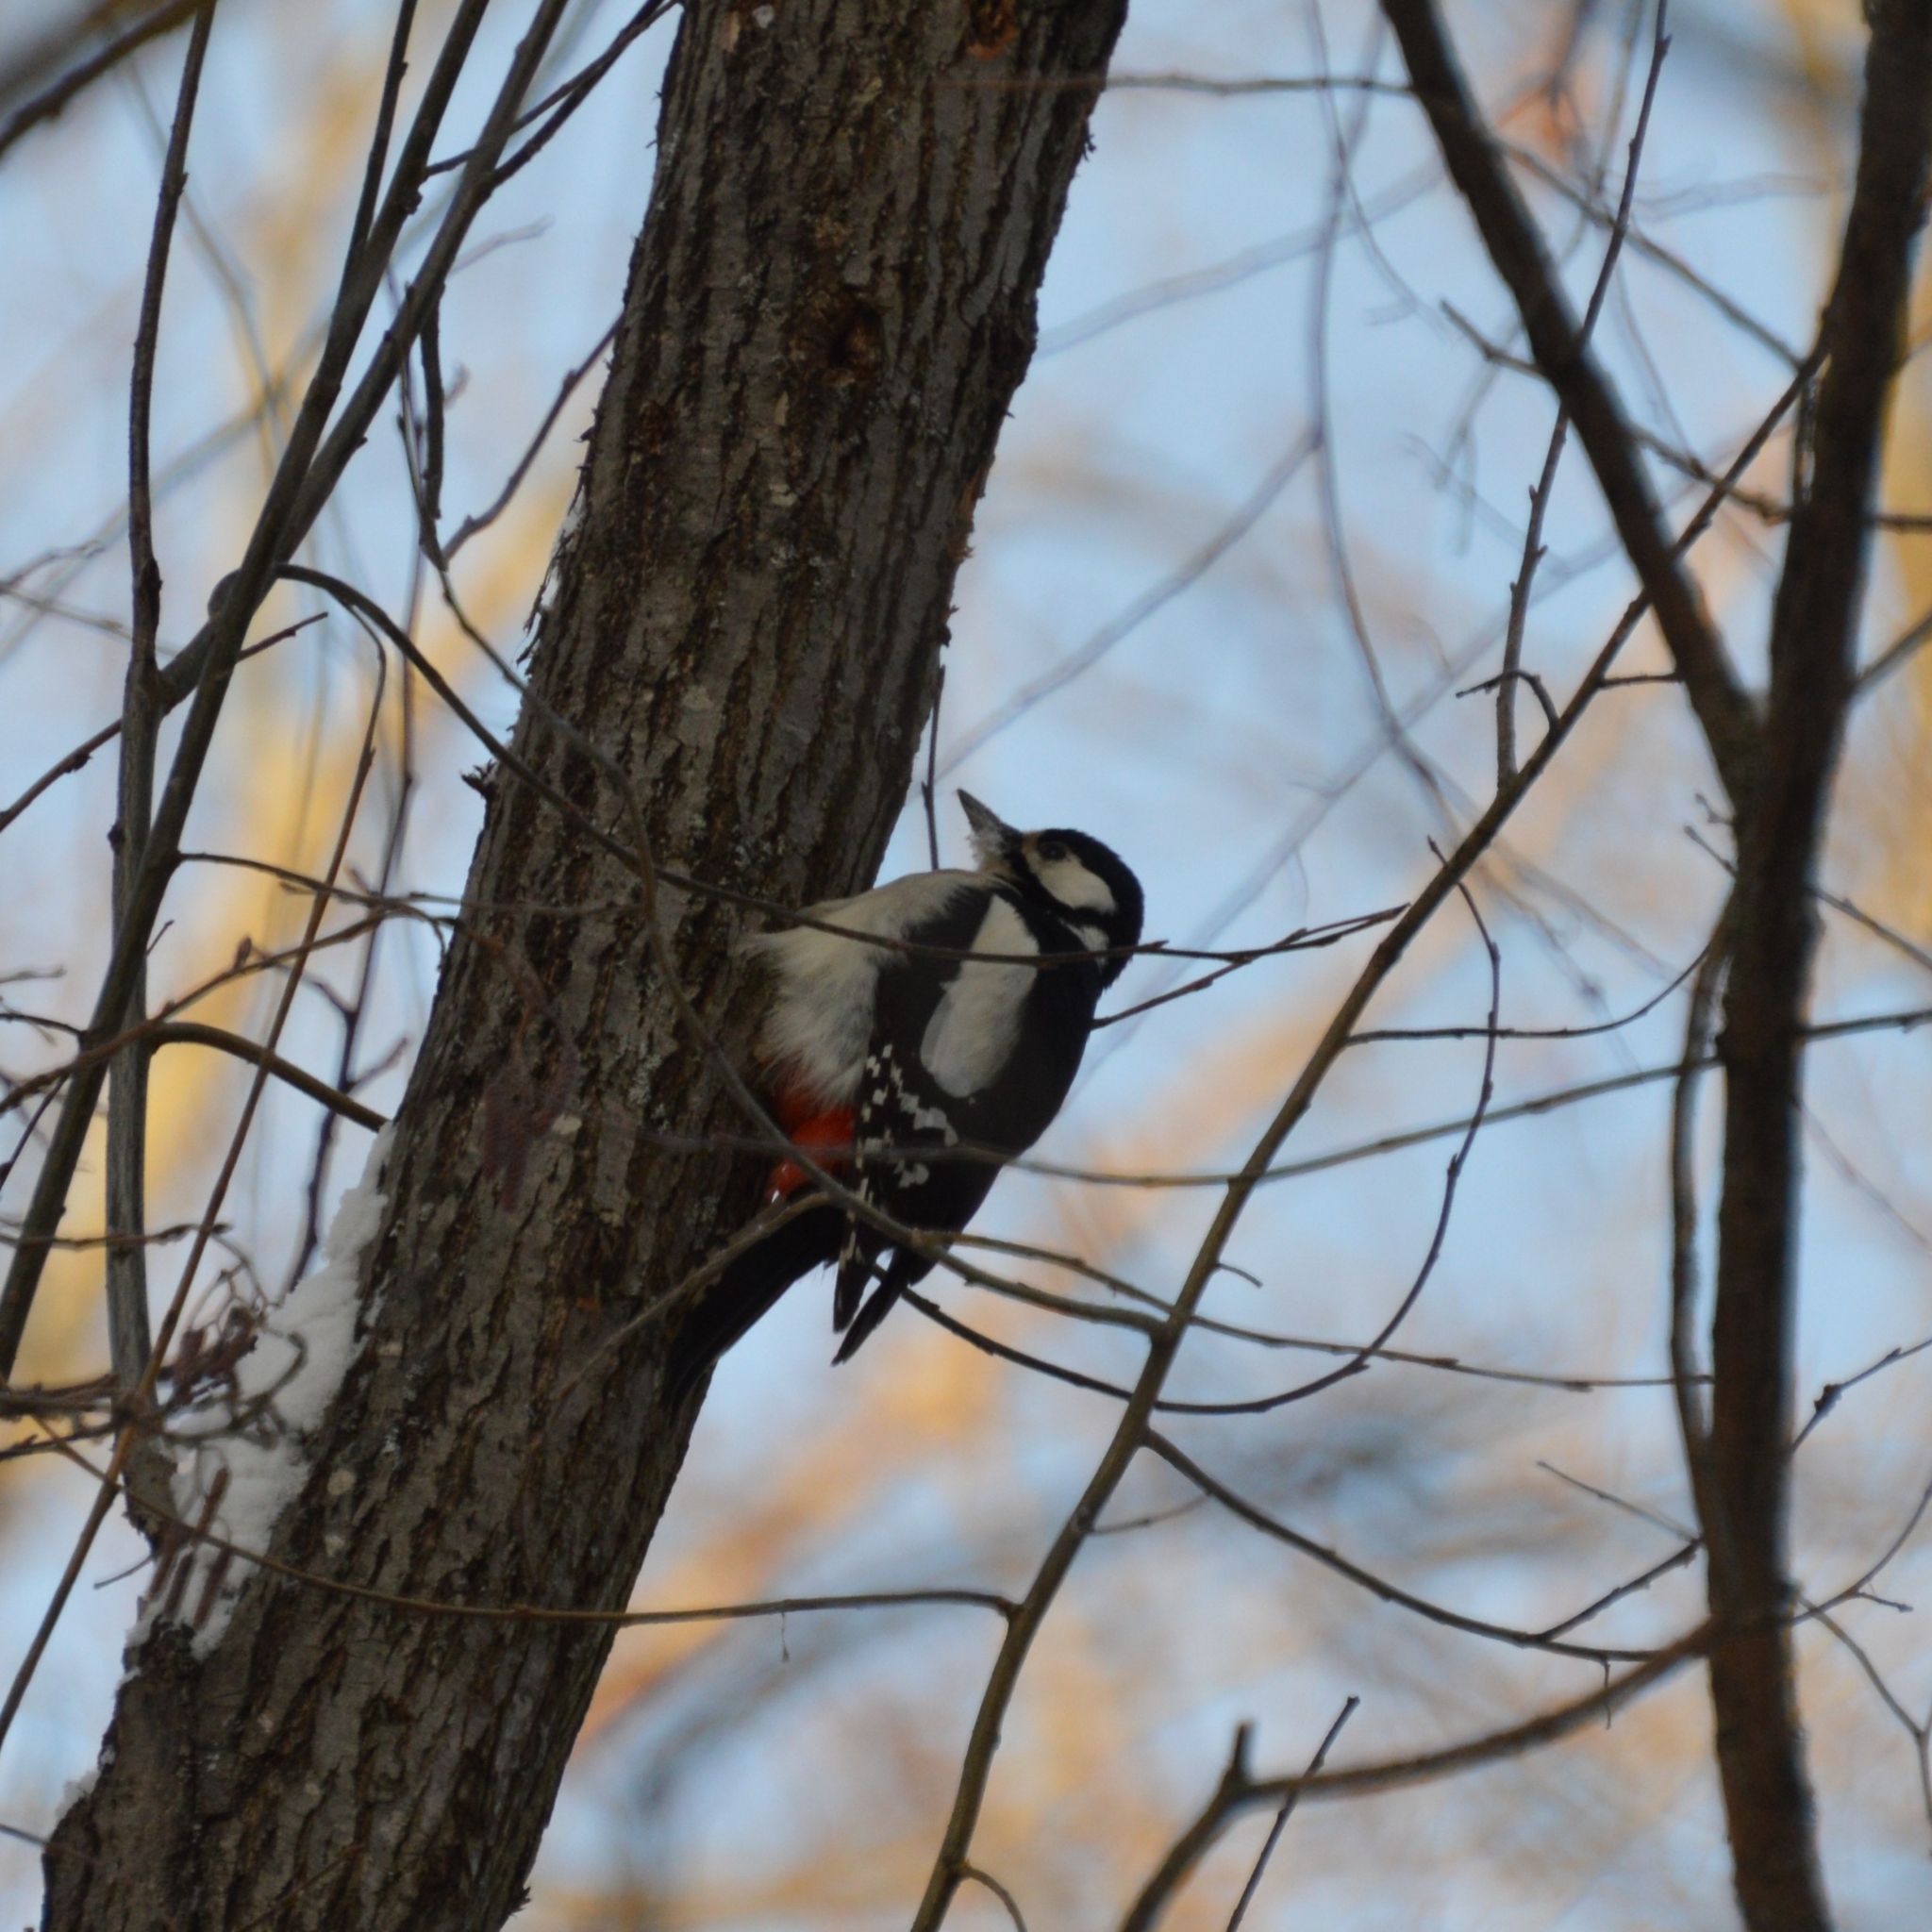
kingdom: Animalia
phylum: Chordata
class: Aves
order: Piciformes
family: Picidae
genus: Dendrocopos
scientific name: Dendrocopos major
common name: Great spotted woodpecker
